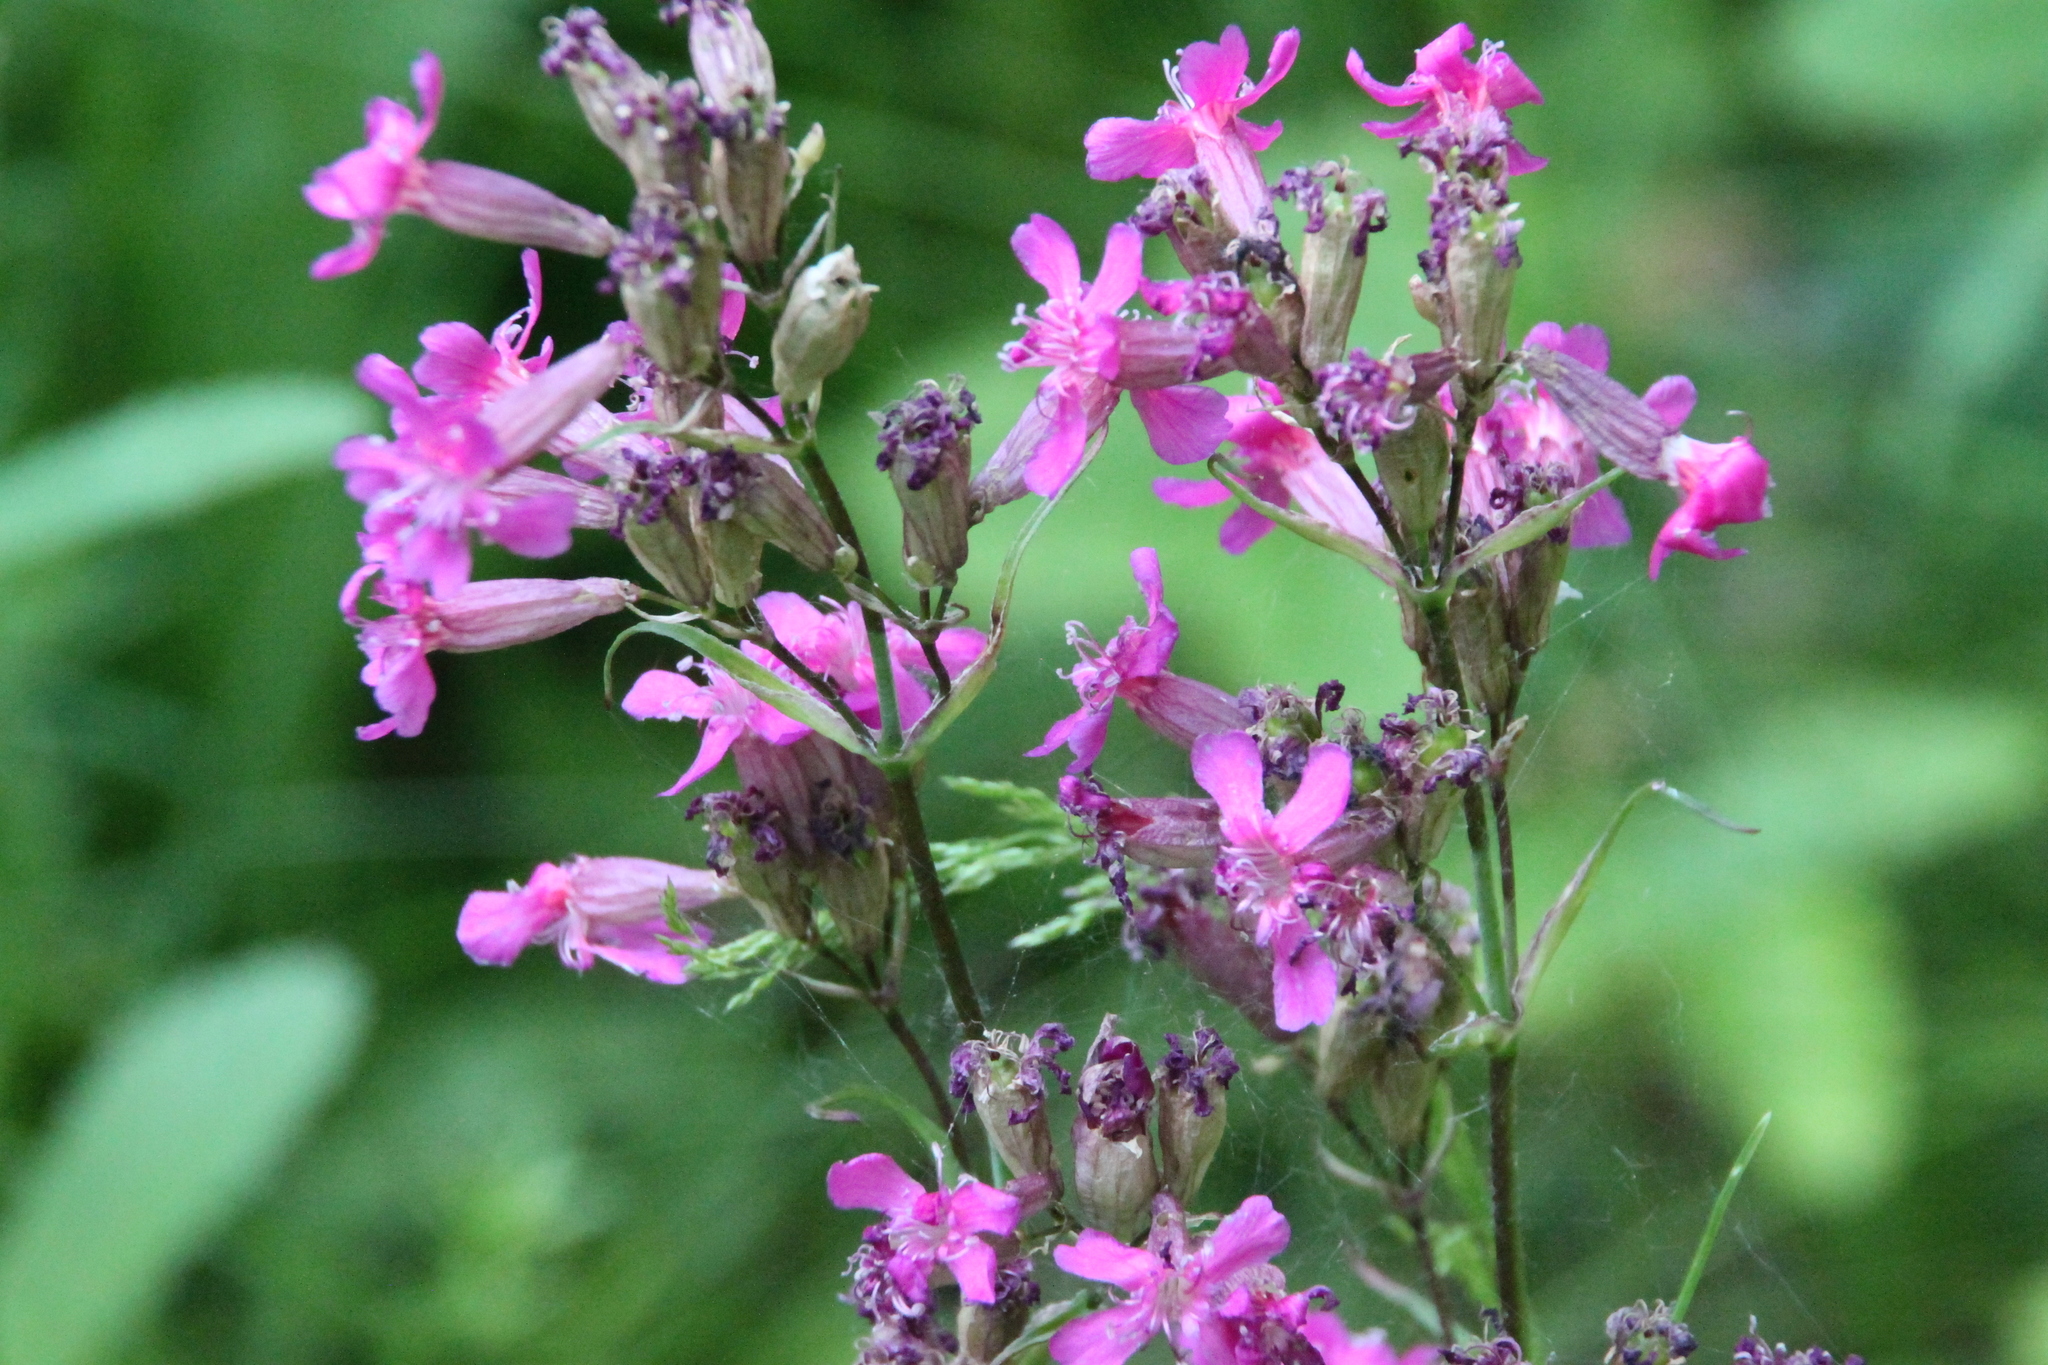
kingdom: Plantae
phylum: Tracheophyta
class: Magnoliopsida
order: Caryophyllales
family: Caryophyllaceae
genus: Viscaria
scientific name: Viscaria vulgaris
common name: Clammy campion
